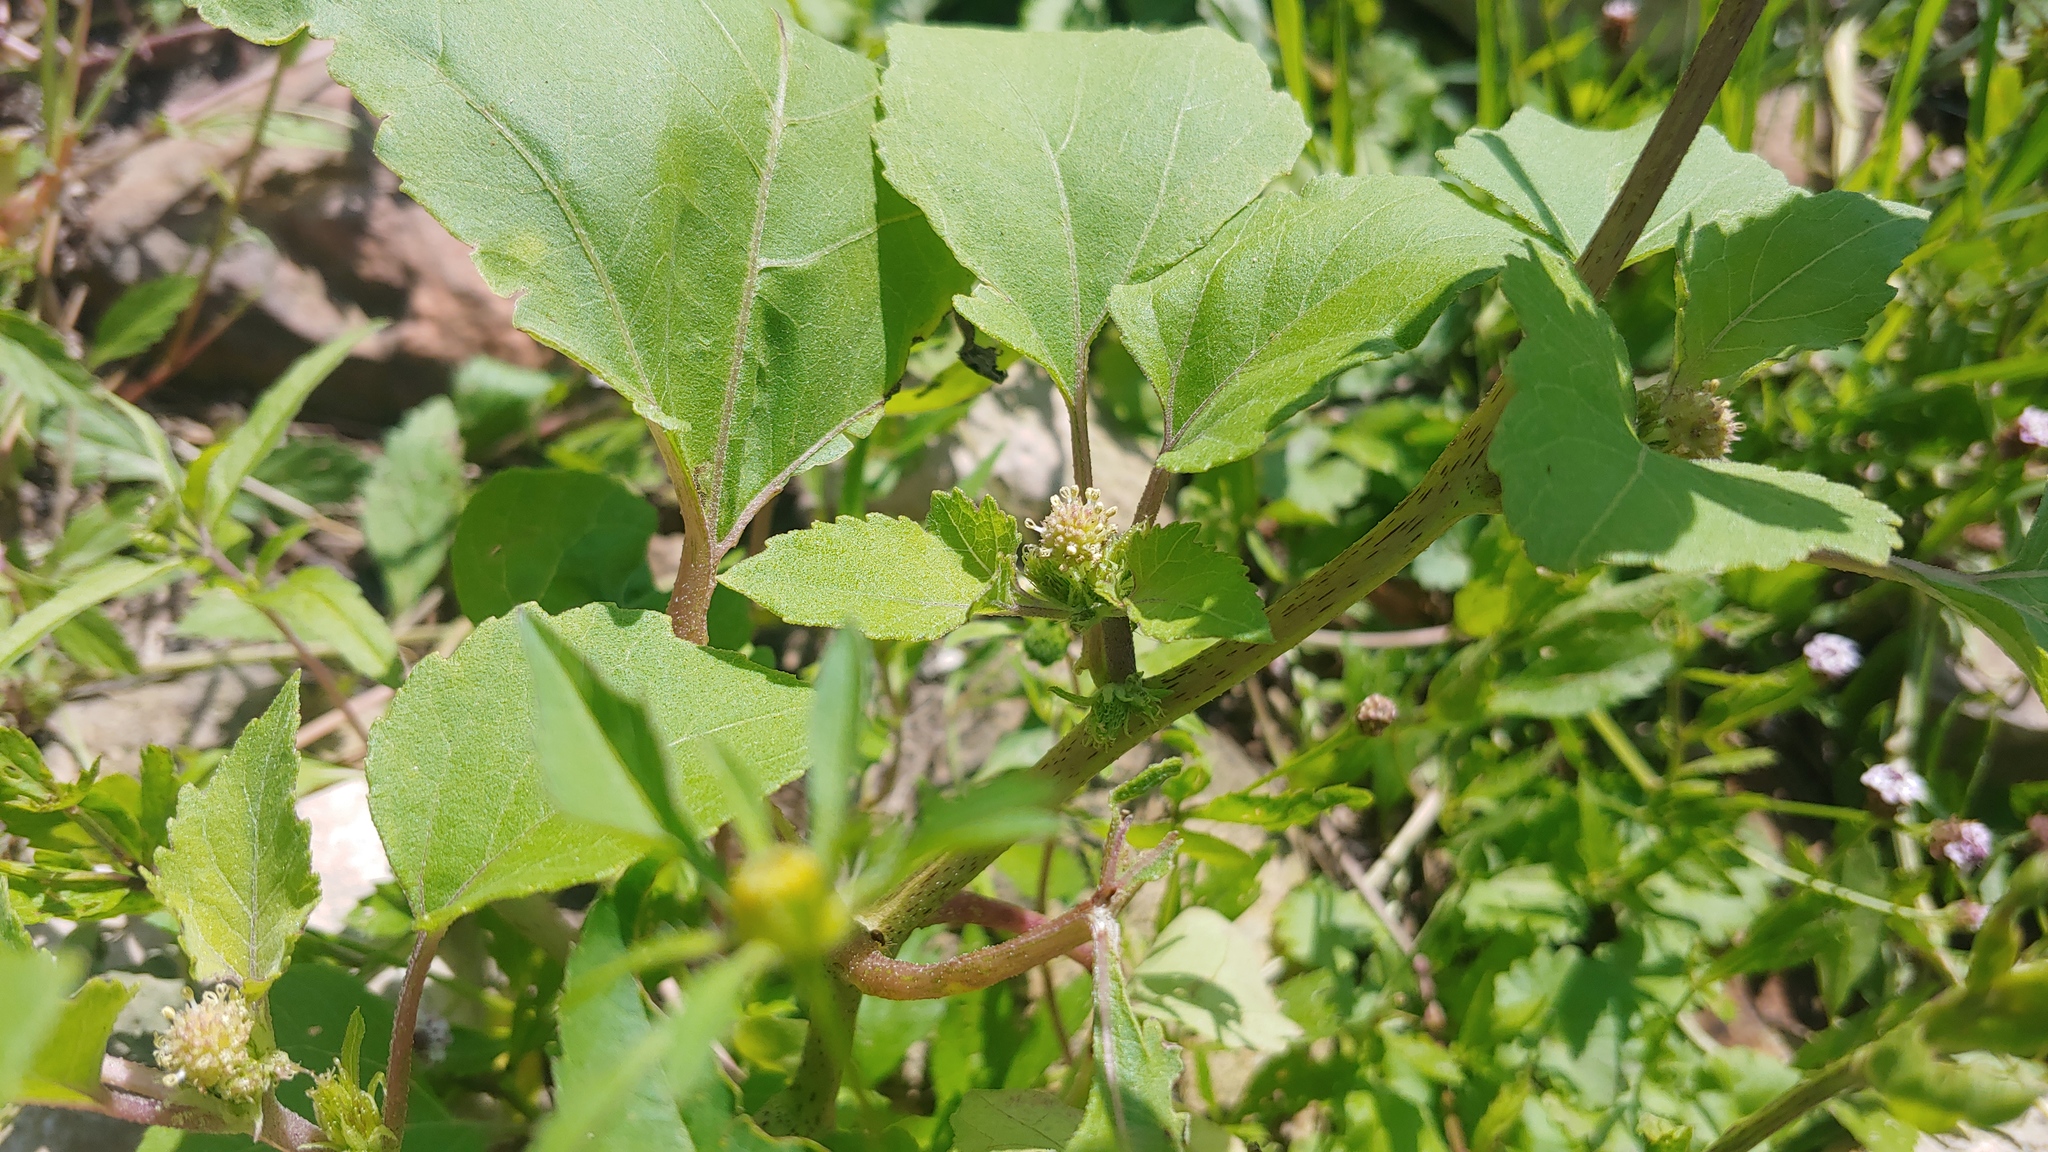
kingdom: Plantae
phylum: Tracheophyta
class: Magnoliopsida
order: Asterales
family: Asteraceae
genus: Xanthium
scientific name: Xanthium strumarium
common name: Rough cocklebur
